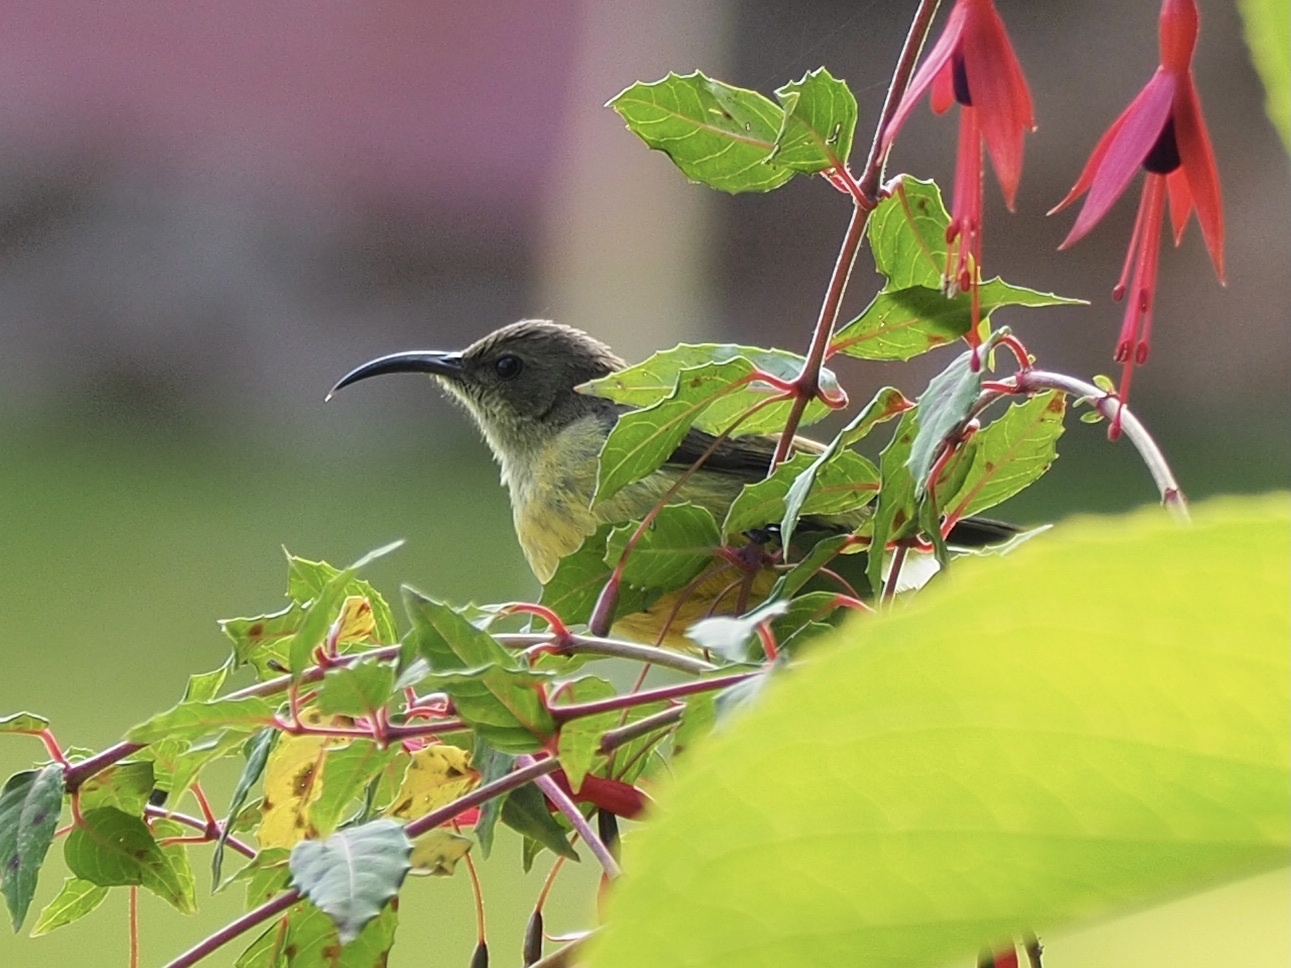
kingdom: Animalia
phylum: Chordata
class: Aves
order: Passeriformes
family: Nectariniidae
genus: Cinnyris
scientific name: Cinnyris venustus
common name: Variable sunbird
